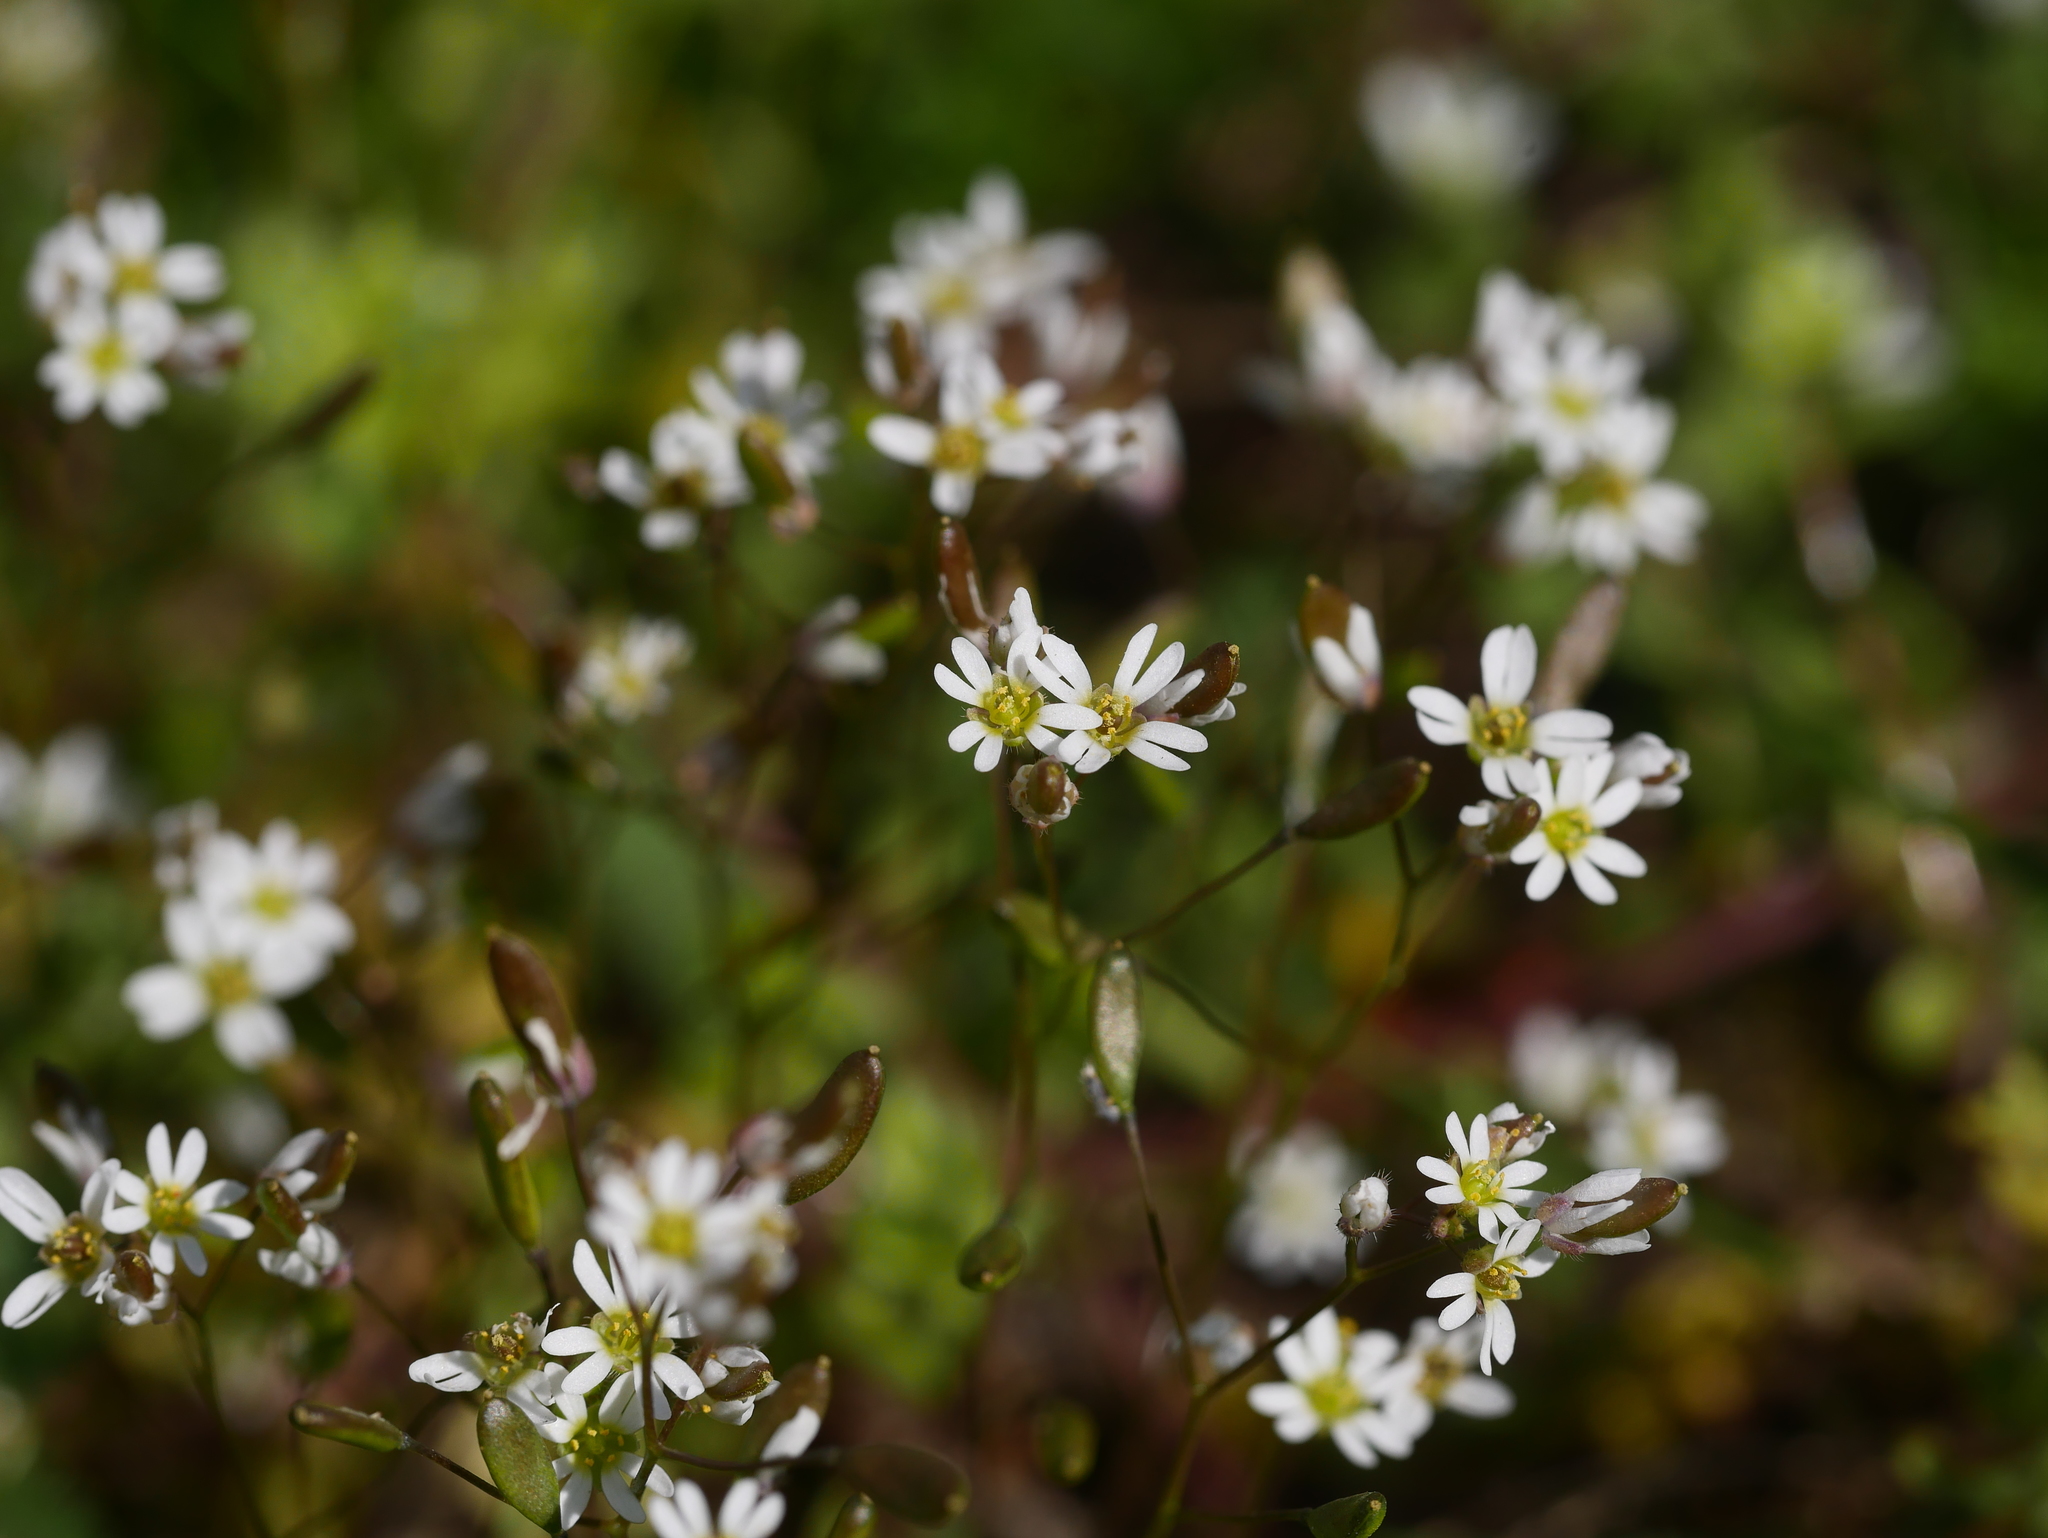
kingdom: Plantae
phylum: Tracheophyta
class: Magnoliopsida
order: Brassicales
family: Brassicaceae
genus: Draba
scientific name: Draba verna
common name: Spring draba
